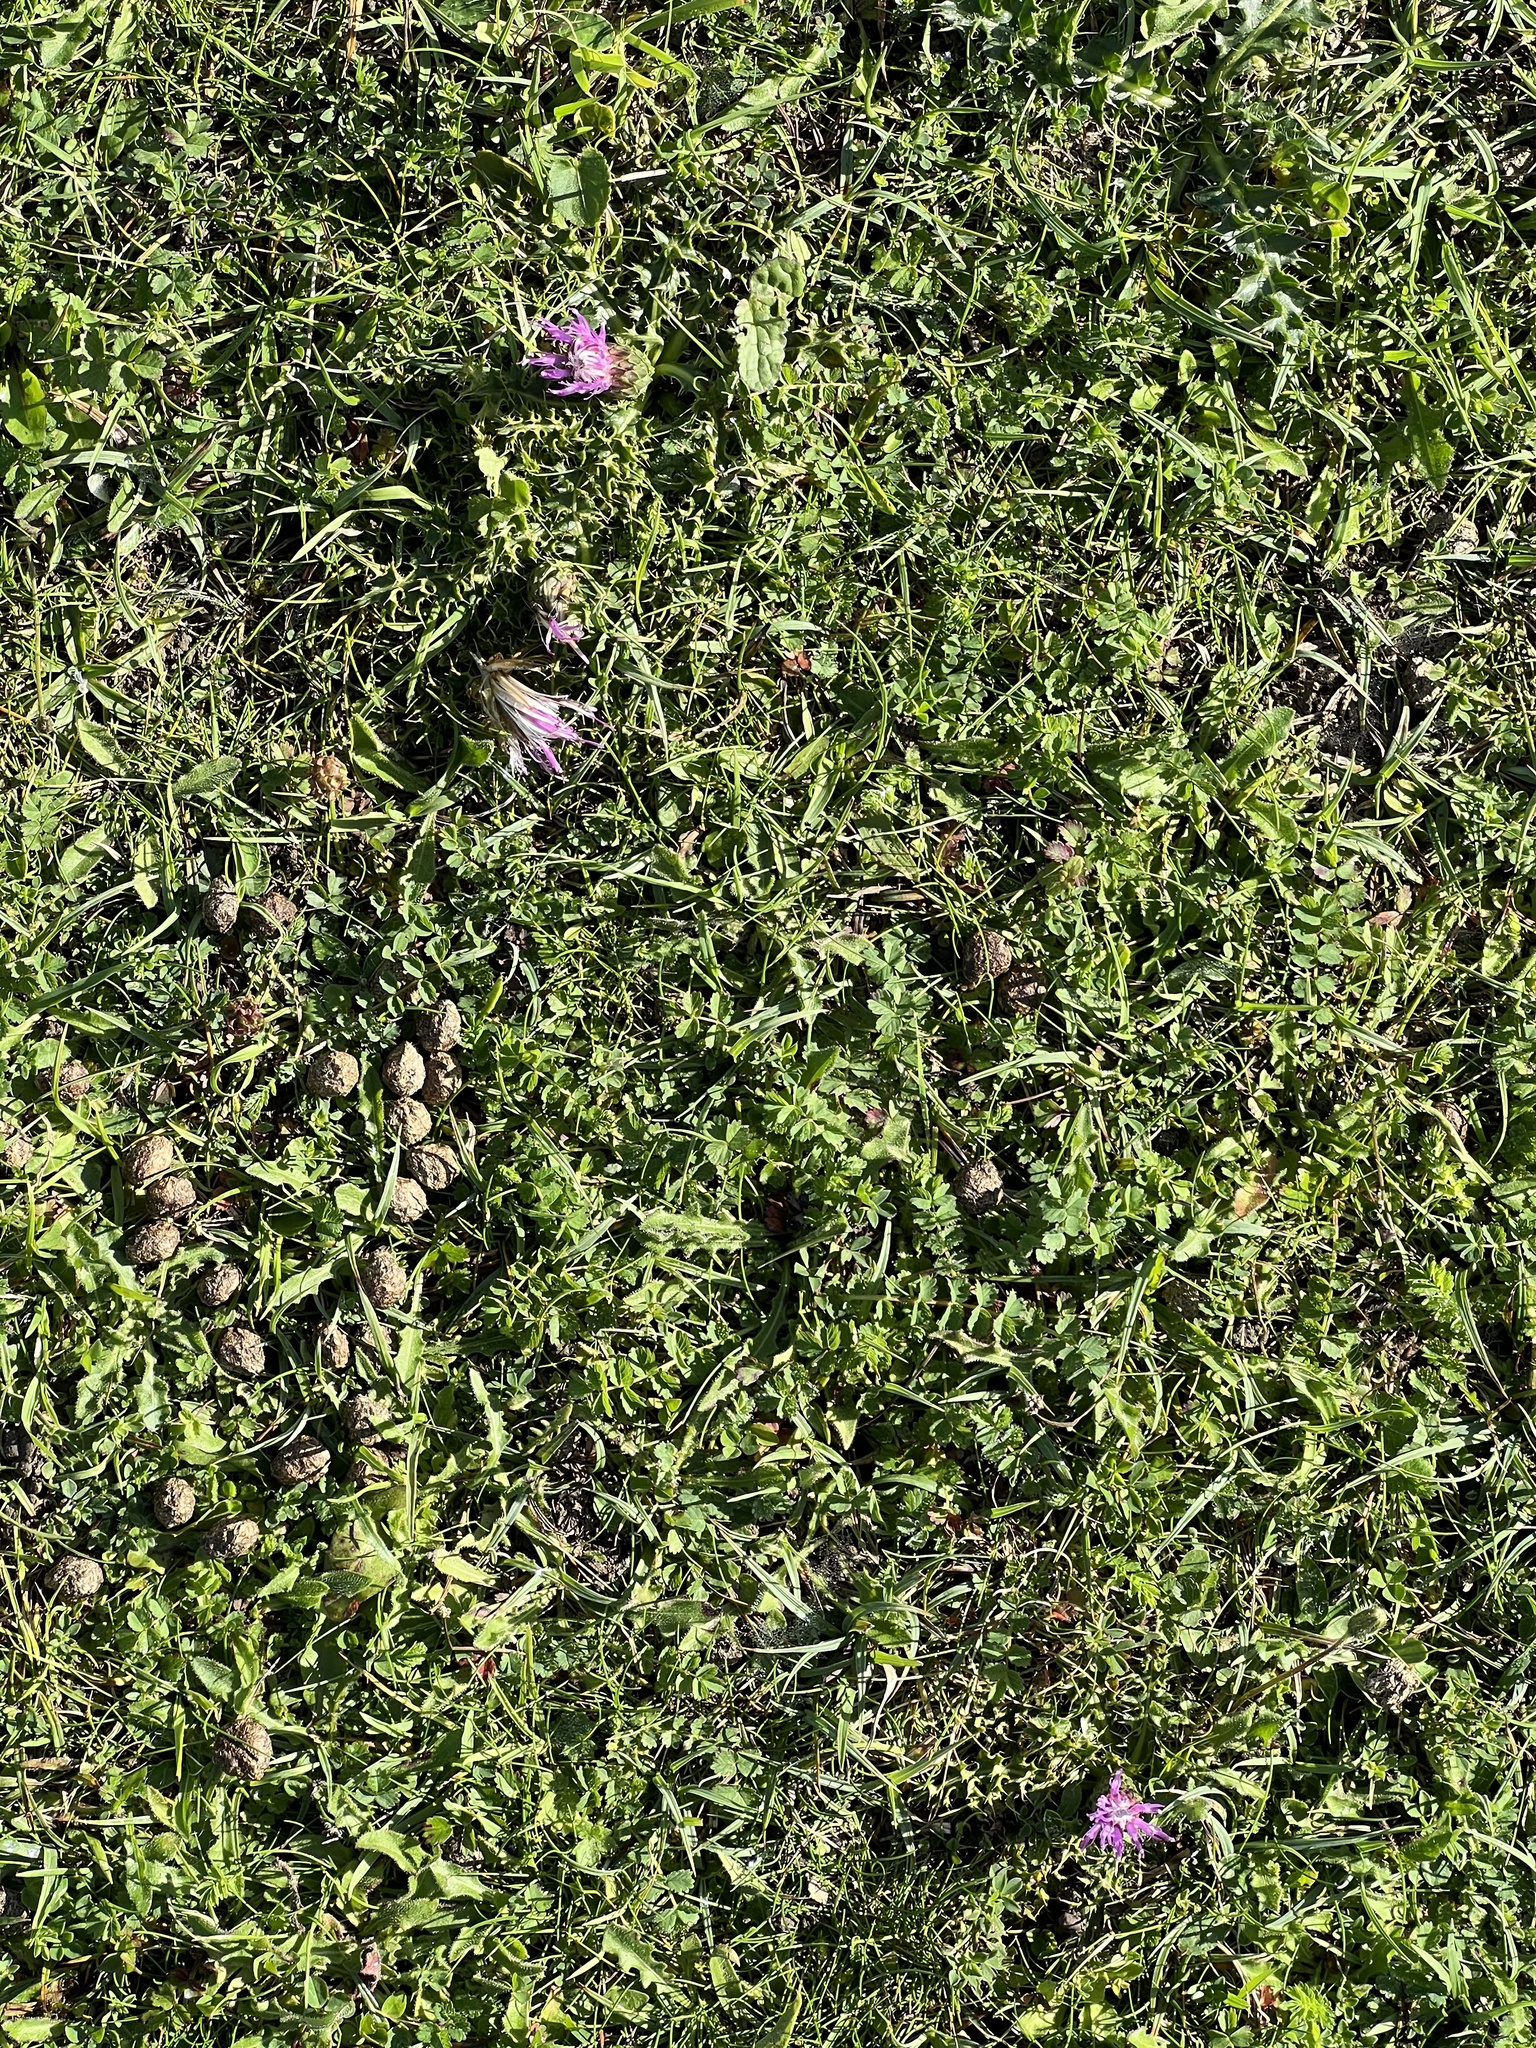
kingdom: Plantae
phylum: Tracheophyta
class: Magnoliopsida
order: Asterales
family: Asteraceae
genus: Cirsium
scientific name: Cirsium acaulon
